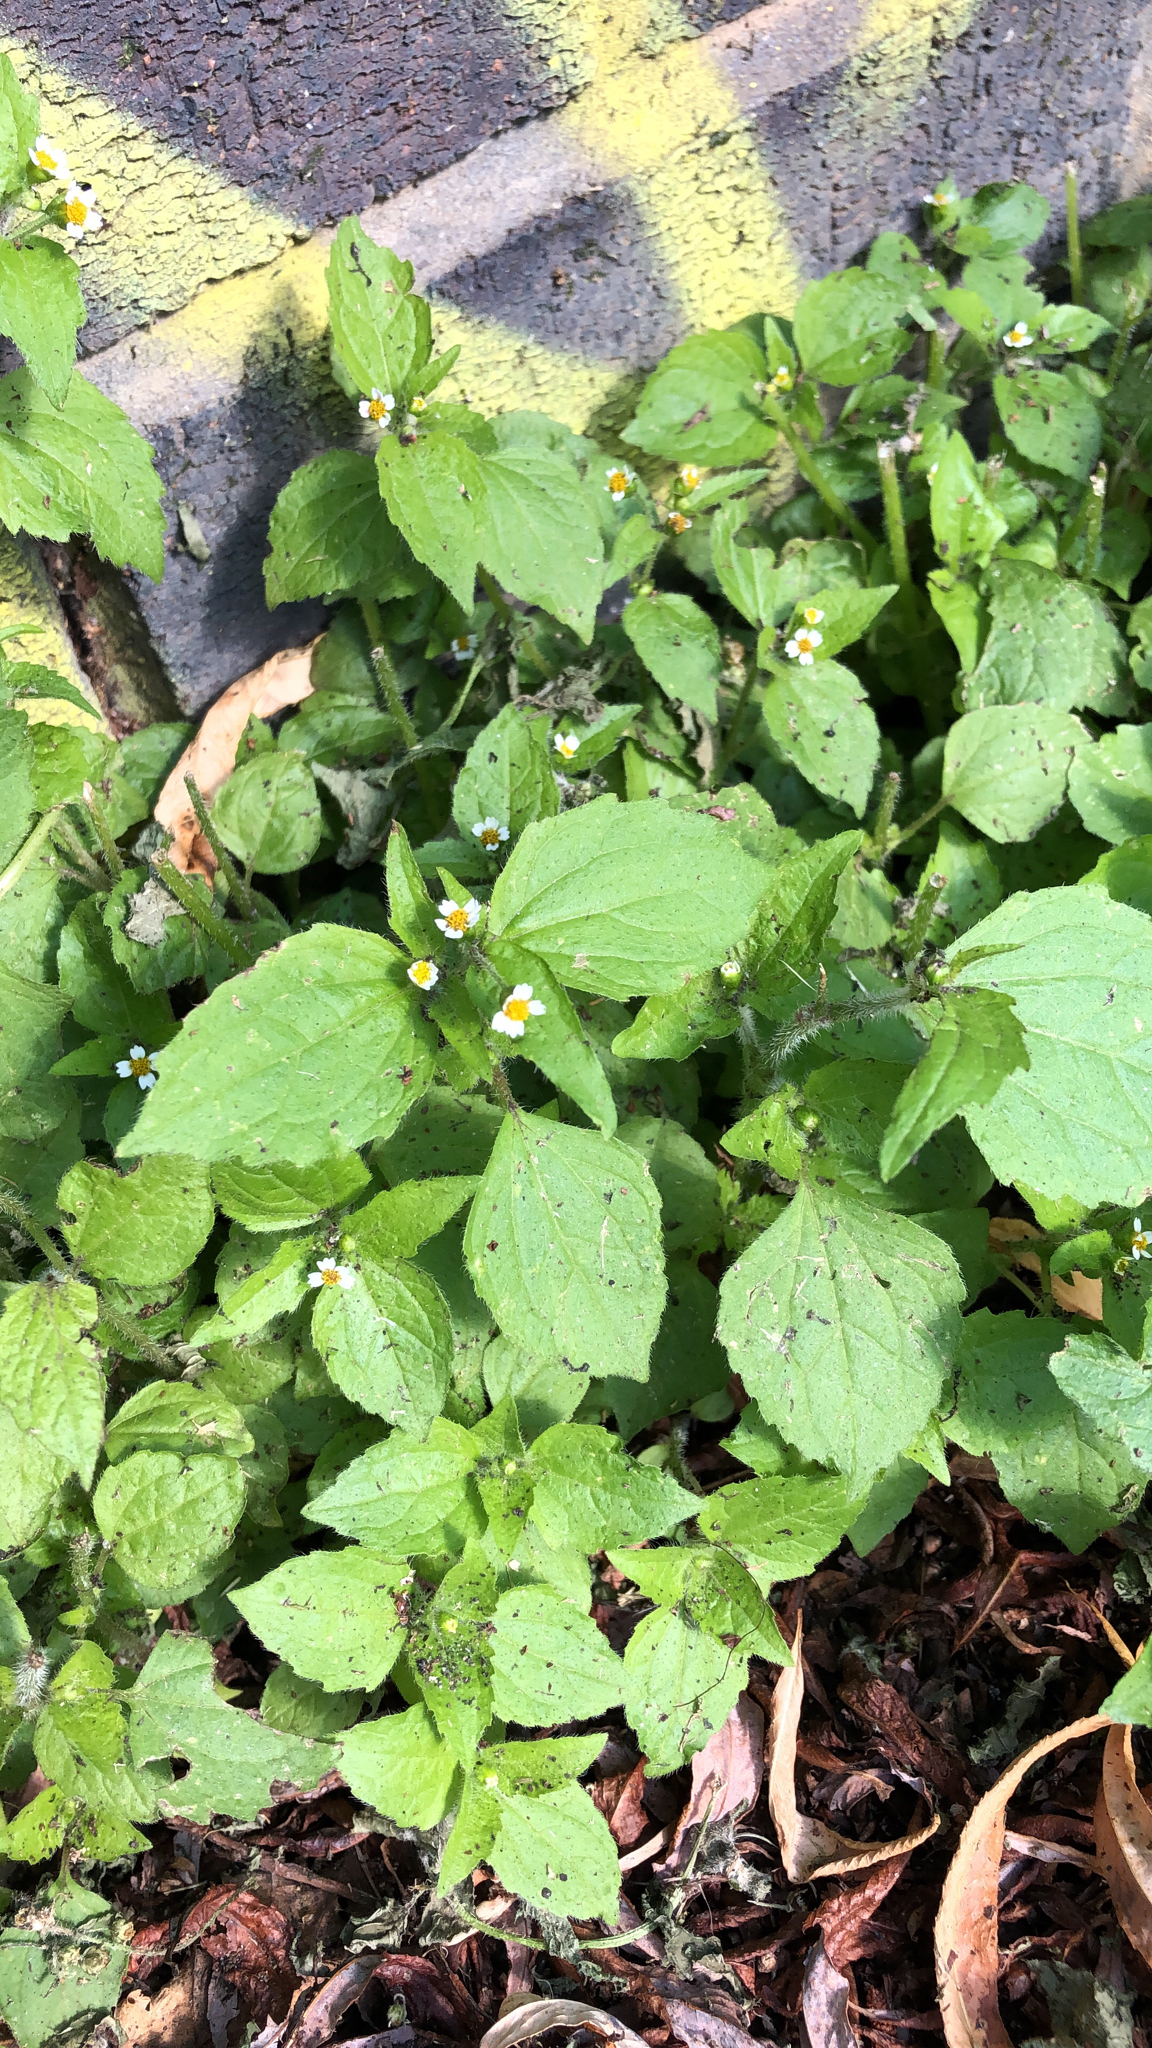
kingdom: Plantae
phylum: Tracheophyta
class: Magnoliopsida
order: Asterales
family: Asteraceae
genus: Galinsoga
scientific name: Galinsoga quadriradiata
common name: Shaggy soldier
